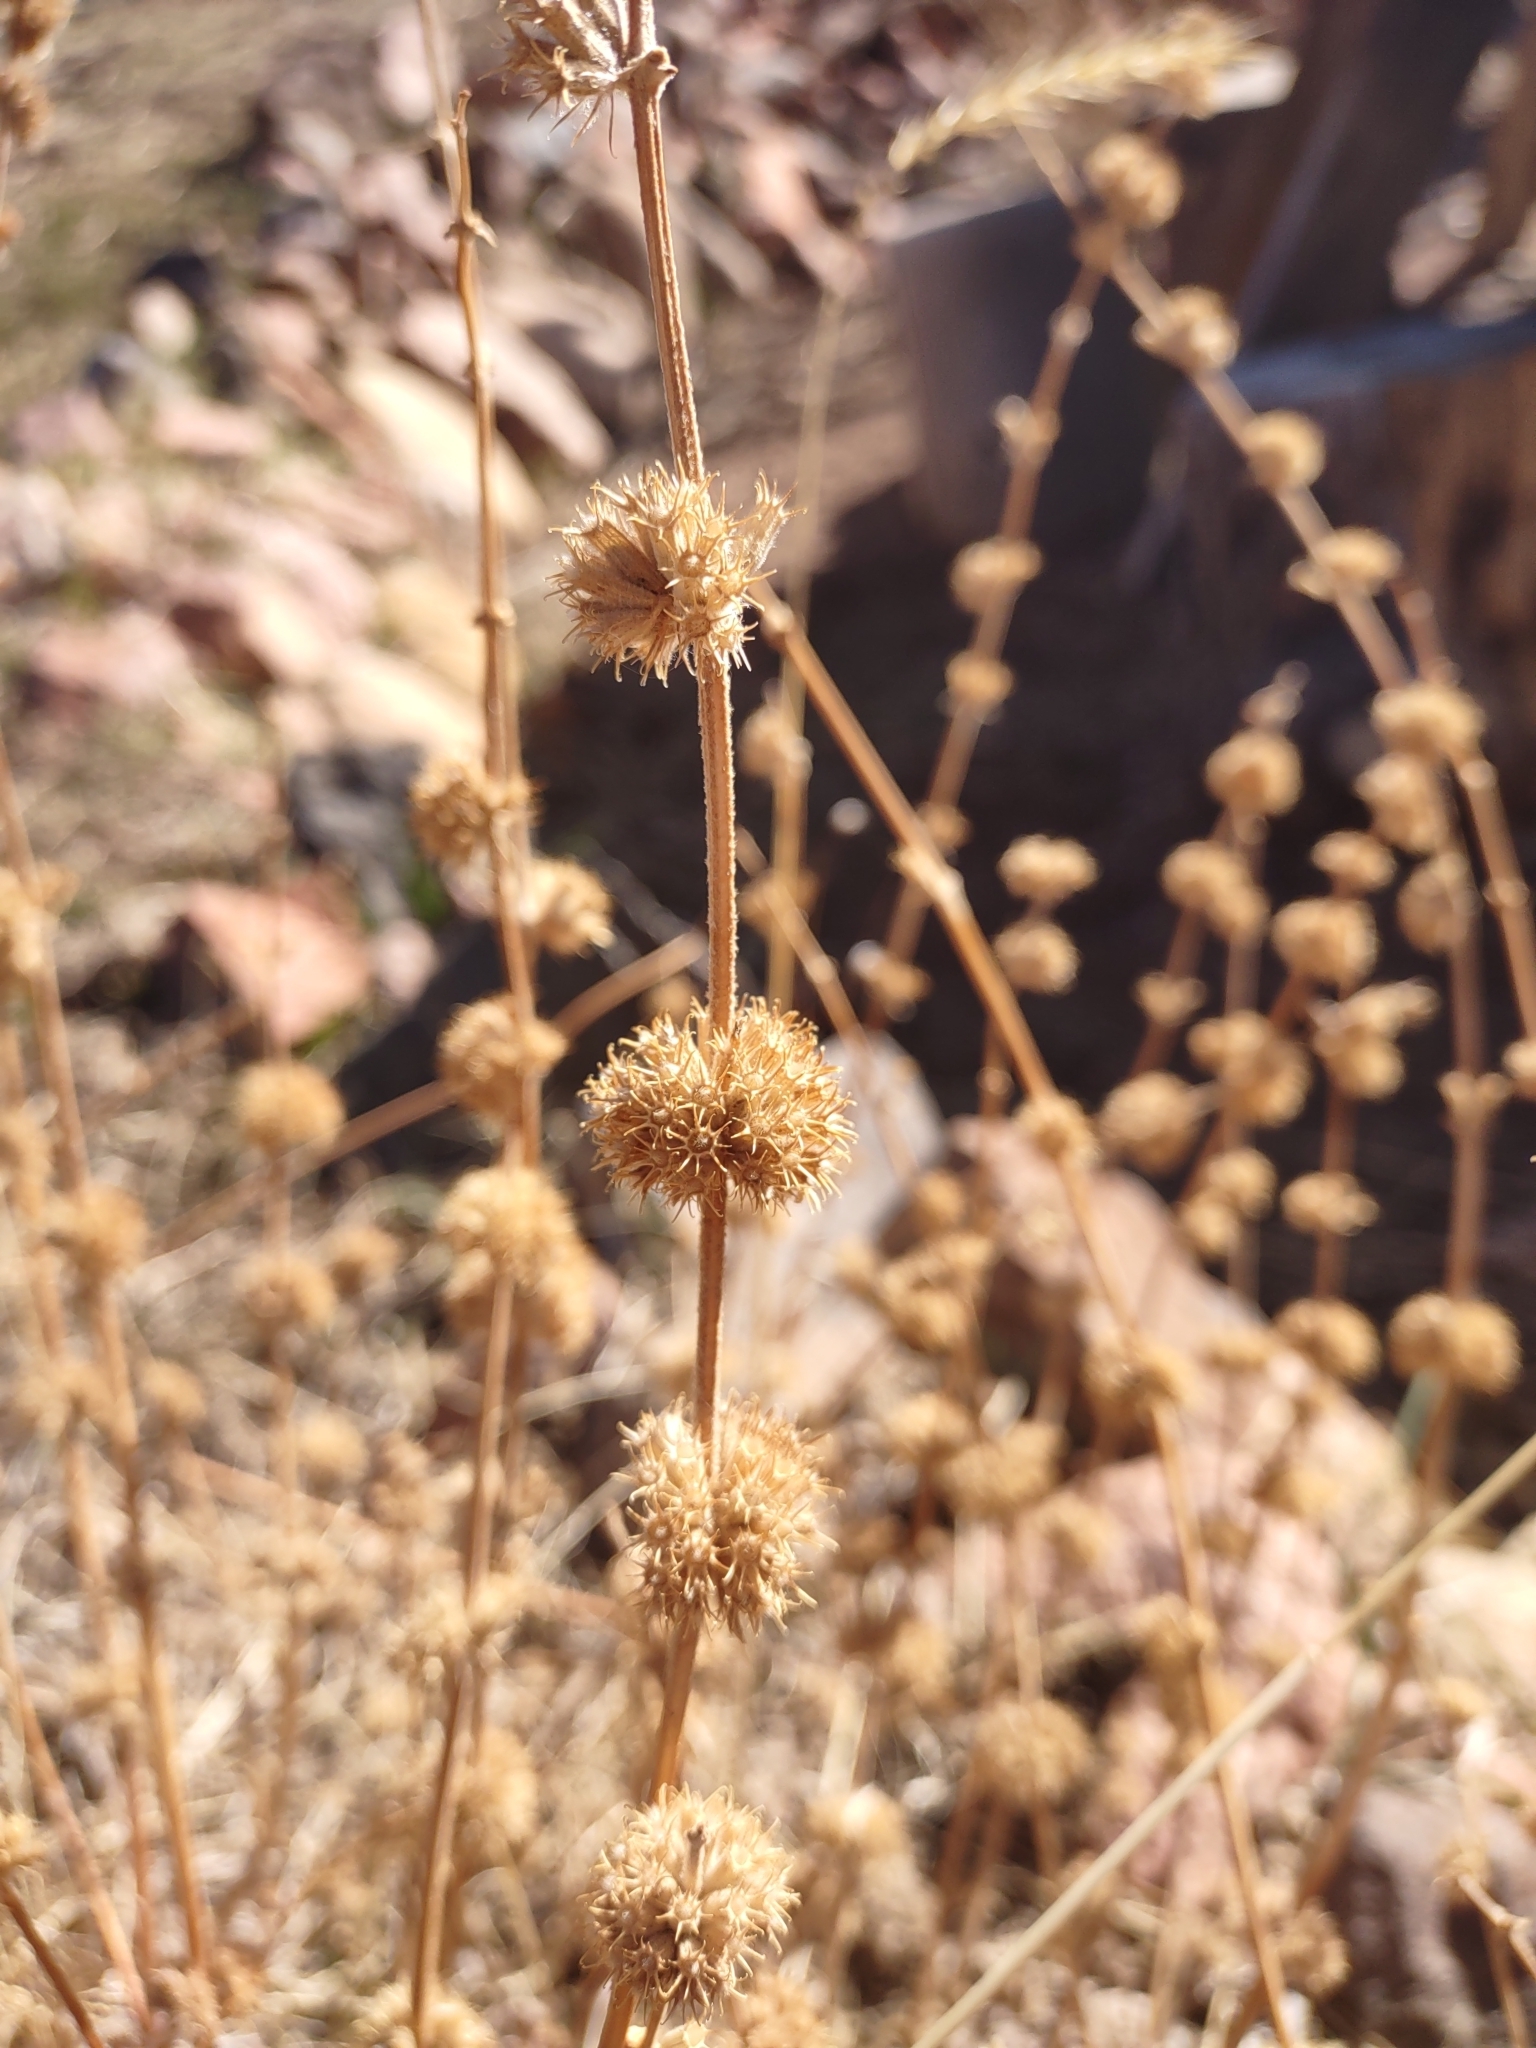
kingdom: Plantae
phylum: Tracheophyta
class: Magnoliopsida
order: Lamiales
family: Lamiaceae
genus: Marrubium
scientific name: Marrubium vulgare
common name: Horehound
